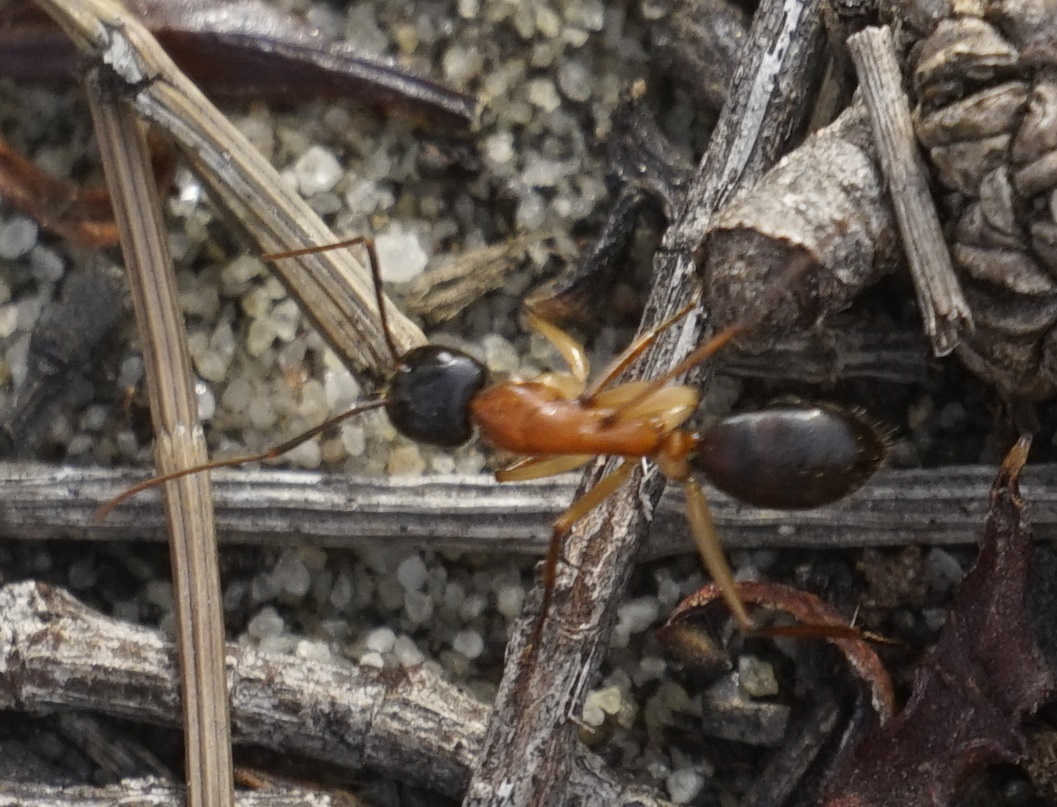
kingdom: Animalia
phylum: Arthropoda
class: Insecta
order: Hymenoptera
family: Formicidae
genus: Camponotus
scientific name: Camponotus nigriceps
